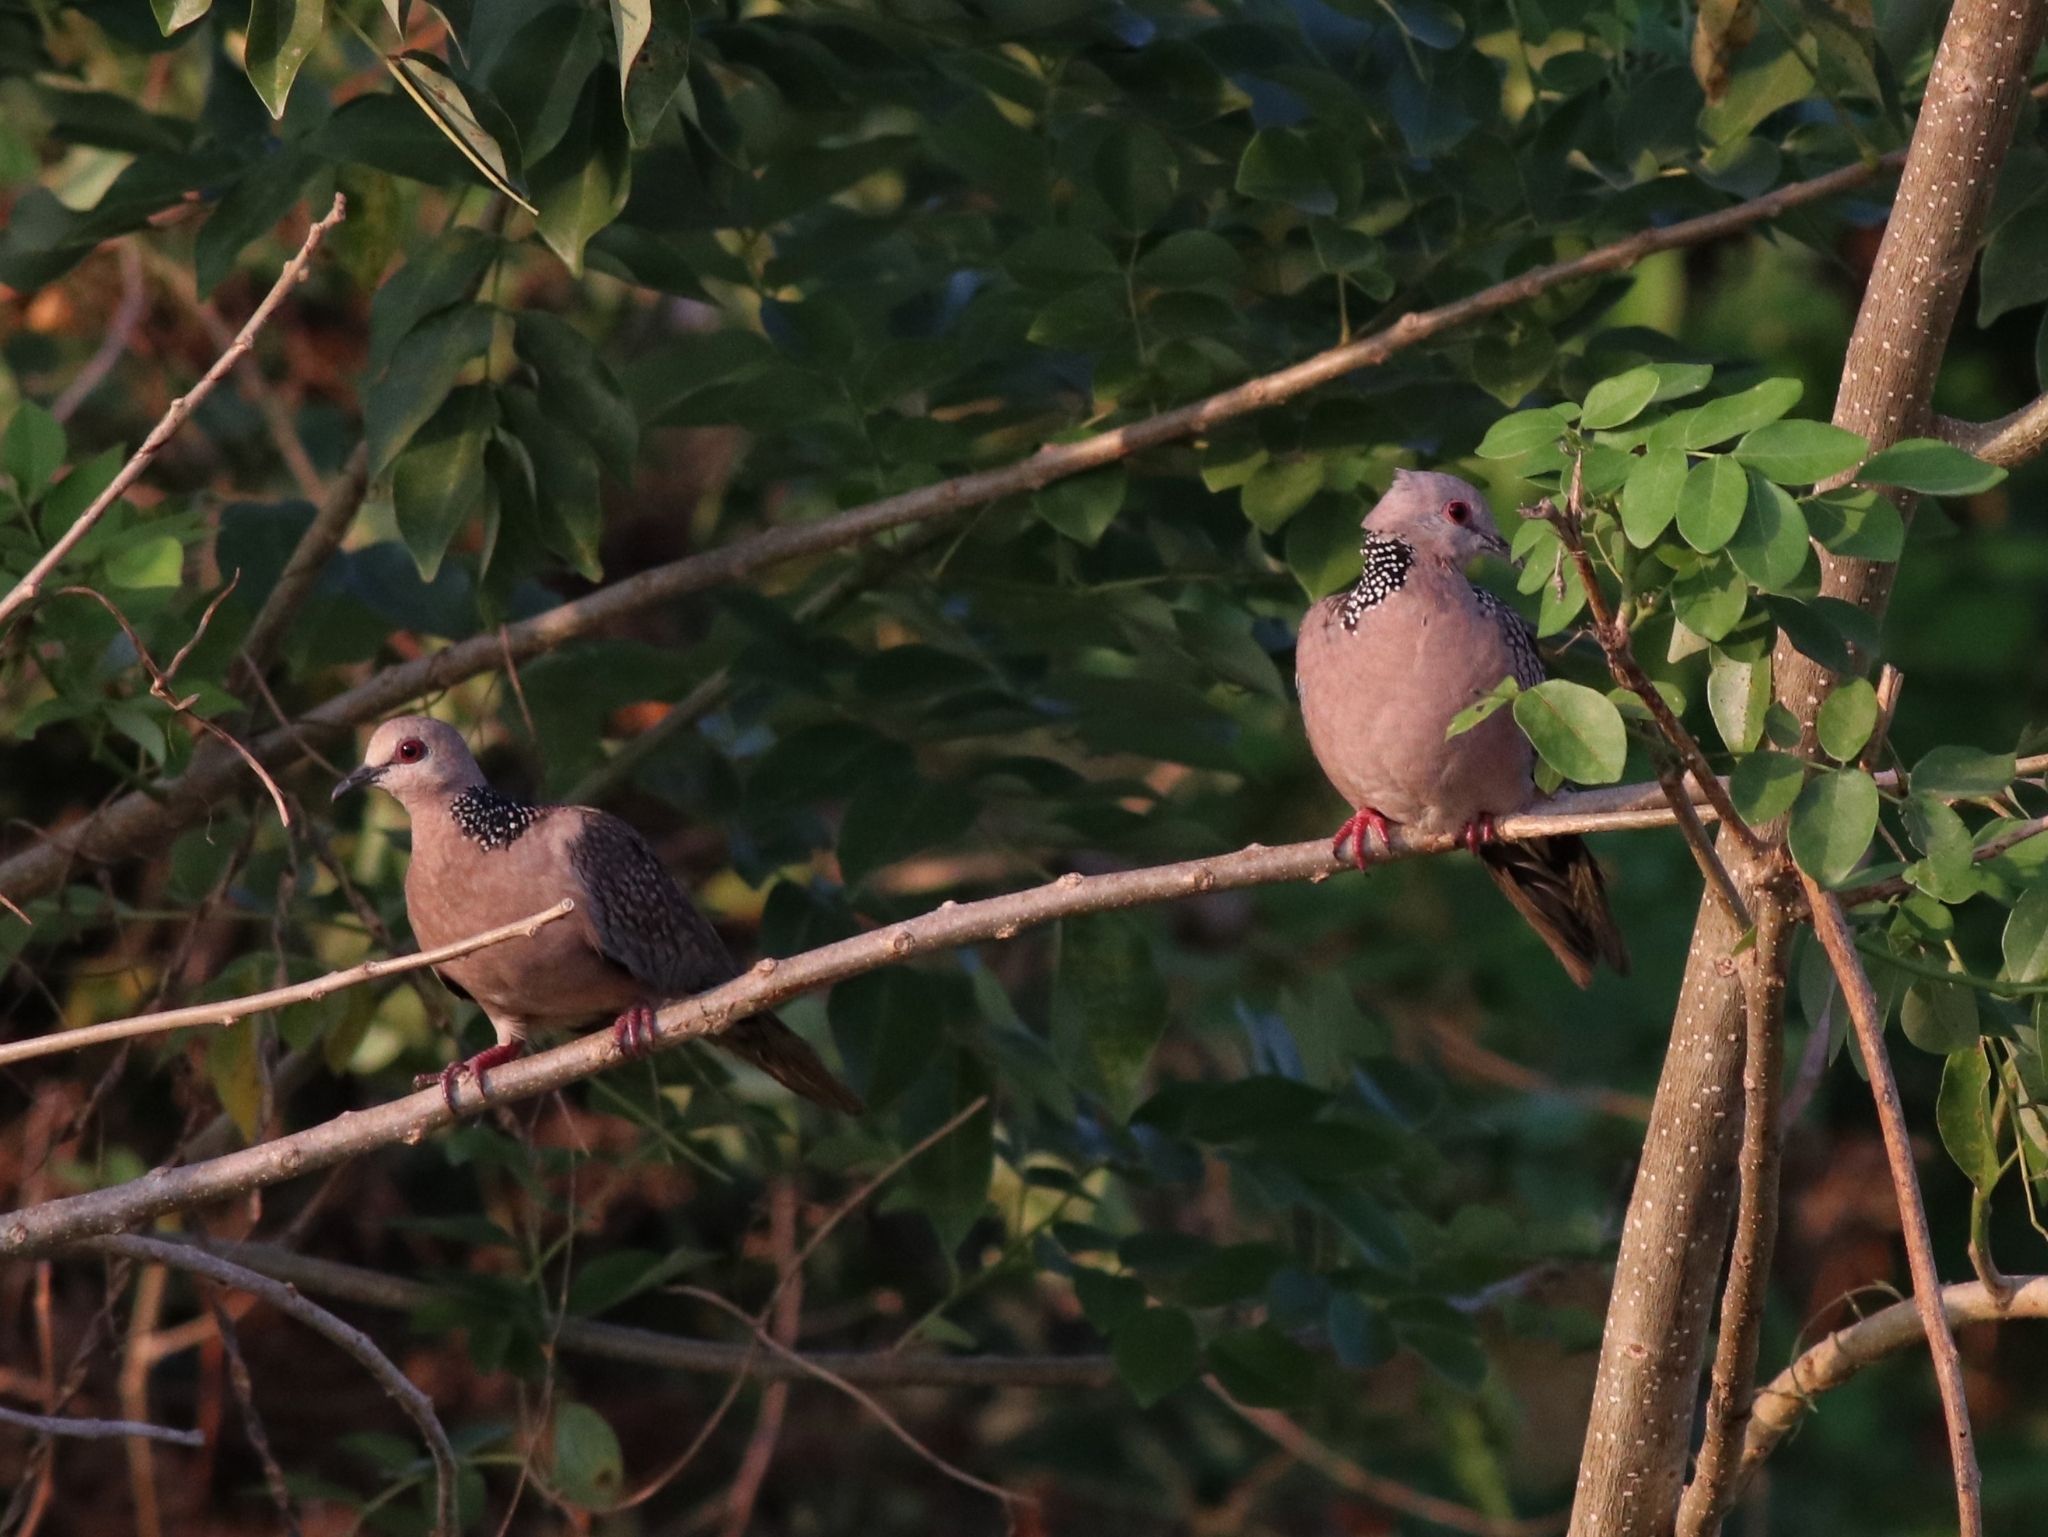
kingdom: Animalia
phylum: Chordata
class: Aves
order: Columbiformes
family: Columbidae
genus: Spilopelia
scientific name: Spilopelia chinensis
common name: Spotted dove
